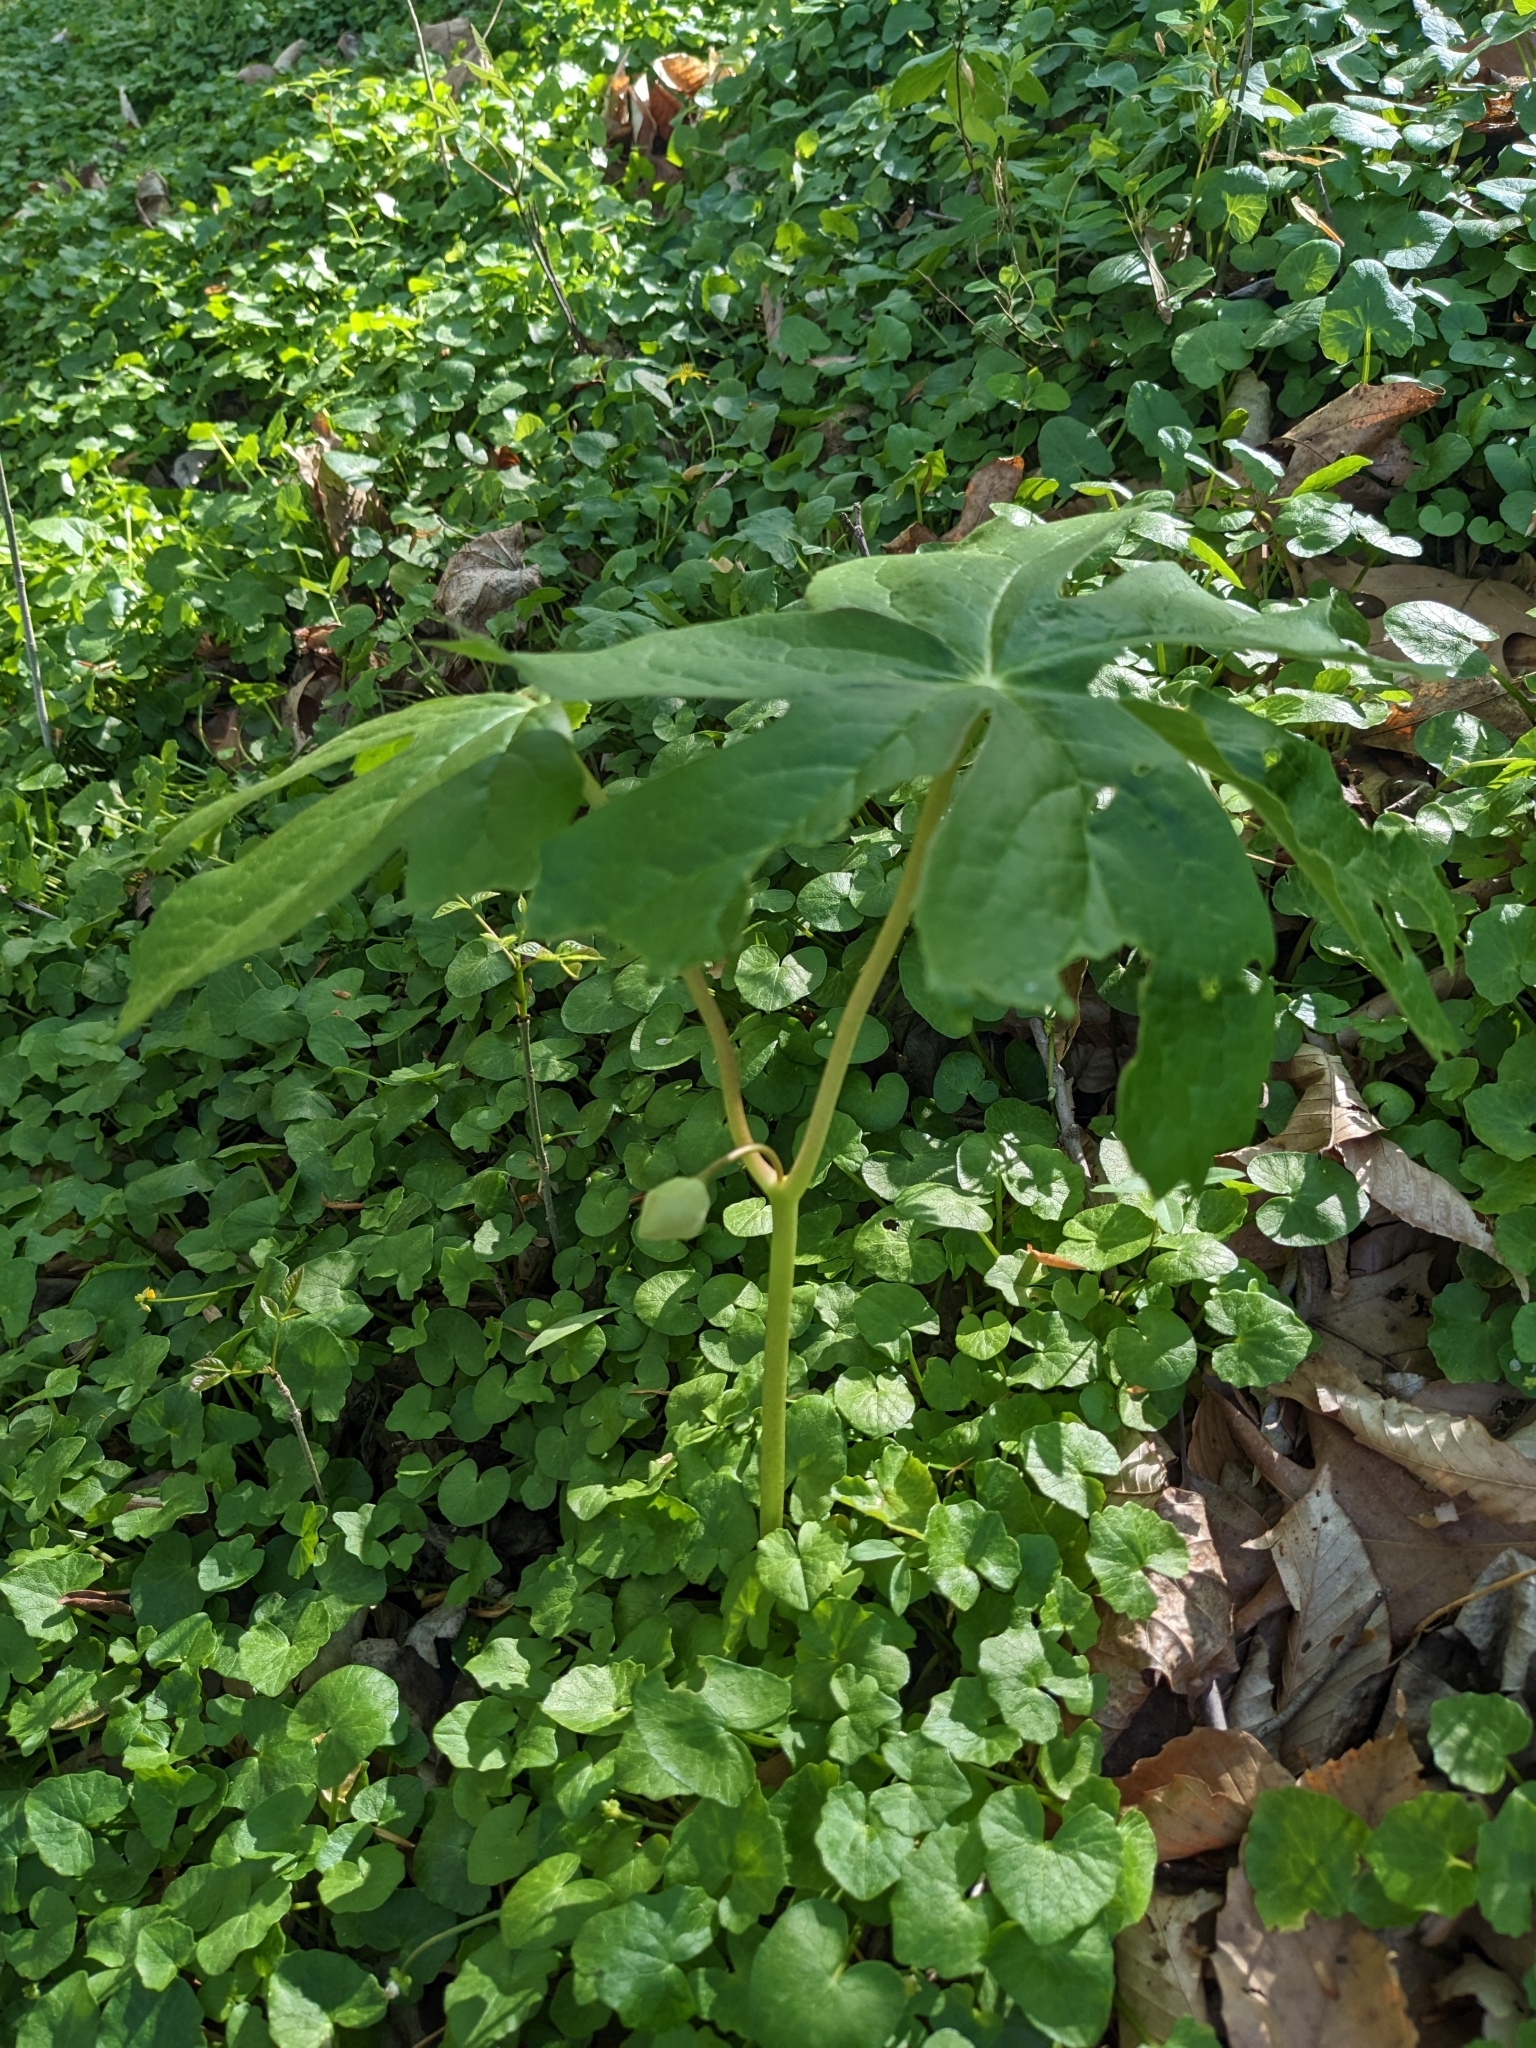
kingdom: Plantae
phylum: Tracheophyta
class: Magnoliopsida
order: Ranunculales
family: Berberidaceae
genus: Podophyllum
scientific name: Podophyllum peltatum
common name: Wild mandrake
